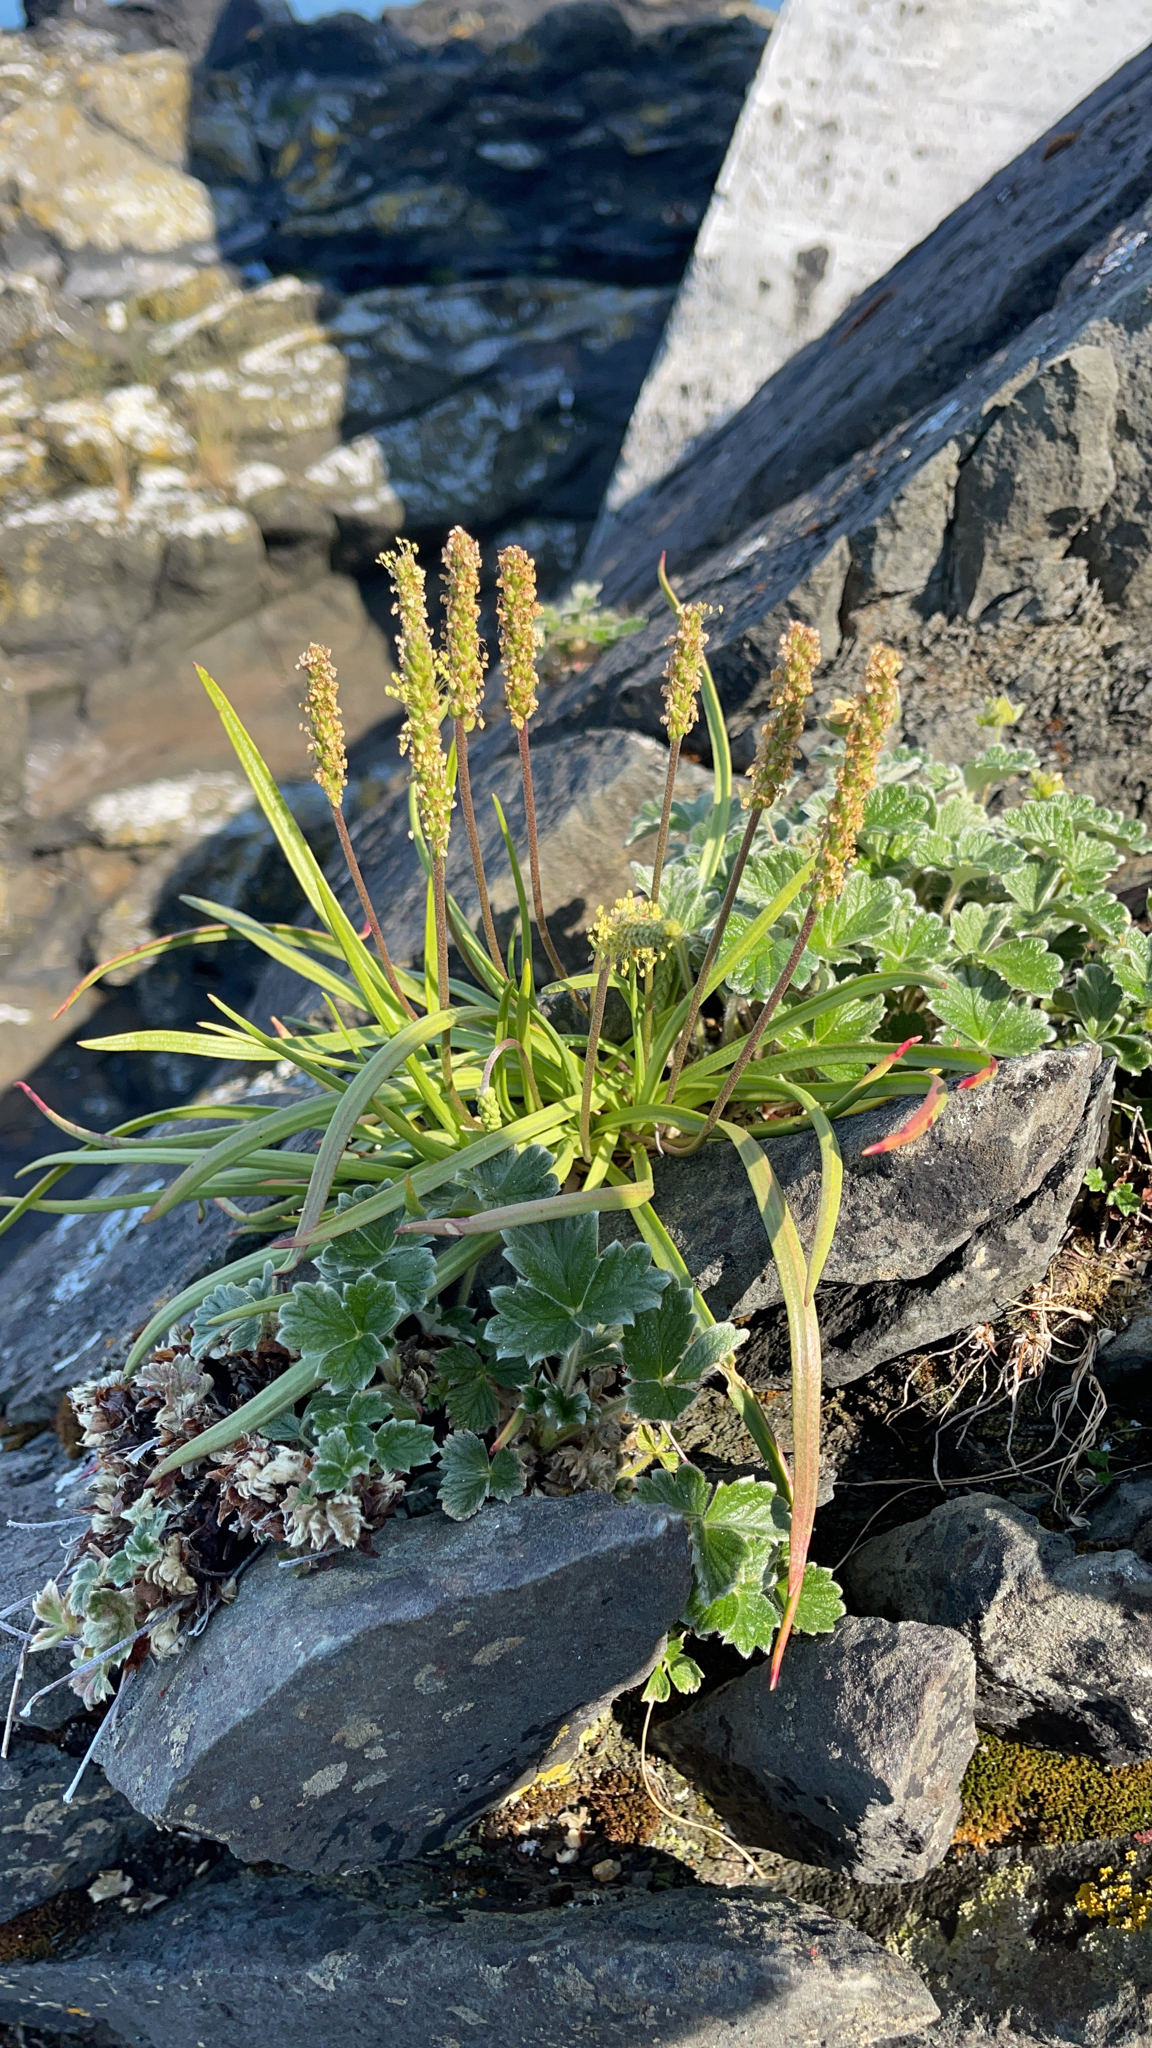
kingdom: Plantae
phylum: Tracheophyta
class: Magnoliopsida
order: Lamiales
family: Plantaginaceae
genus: Plantago
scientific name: Plantago maritima
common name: Sea plantain
